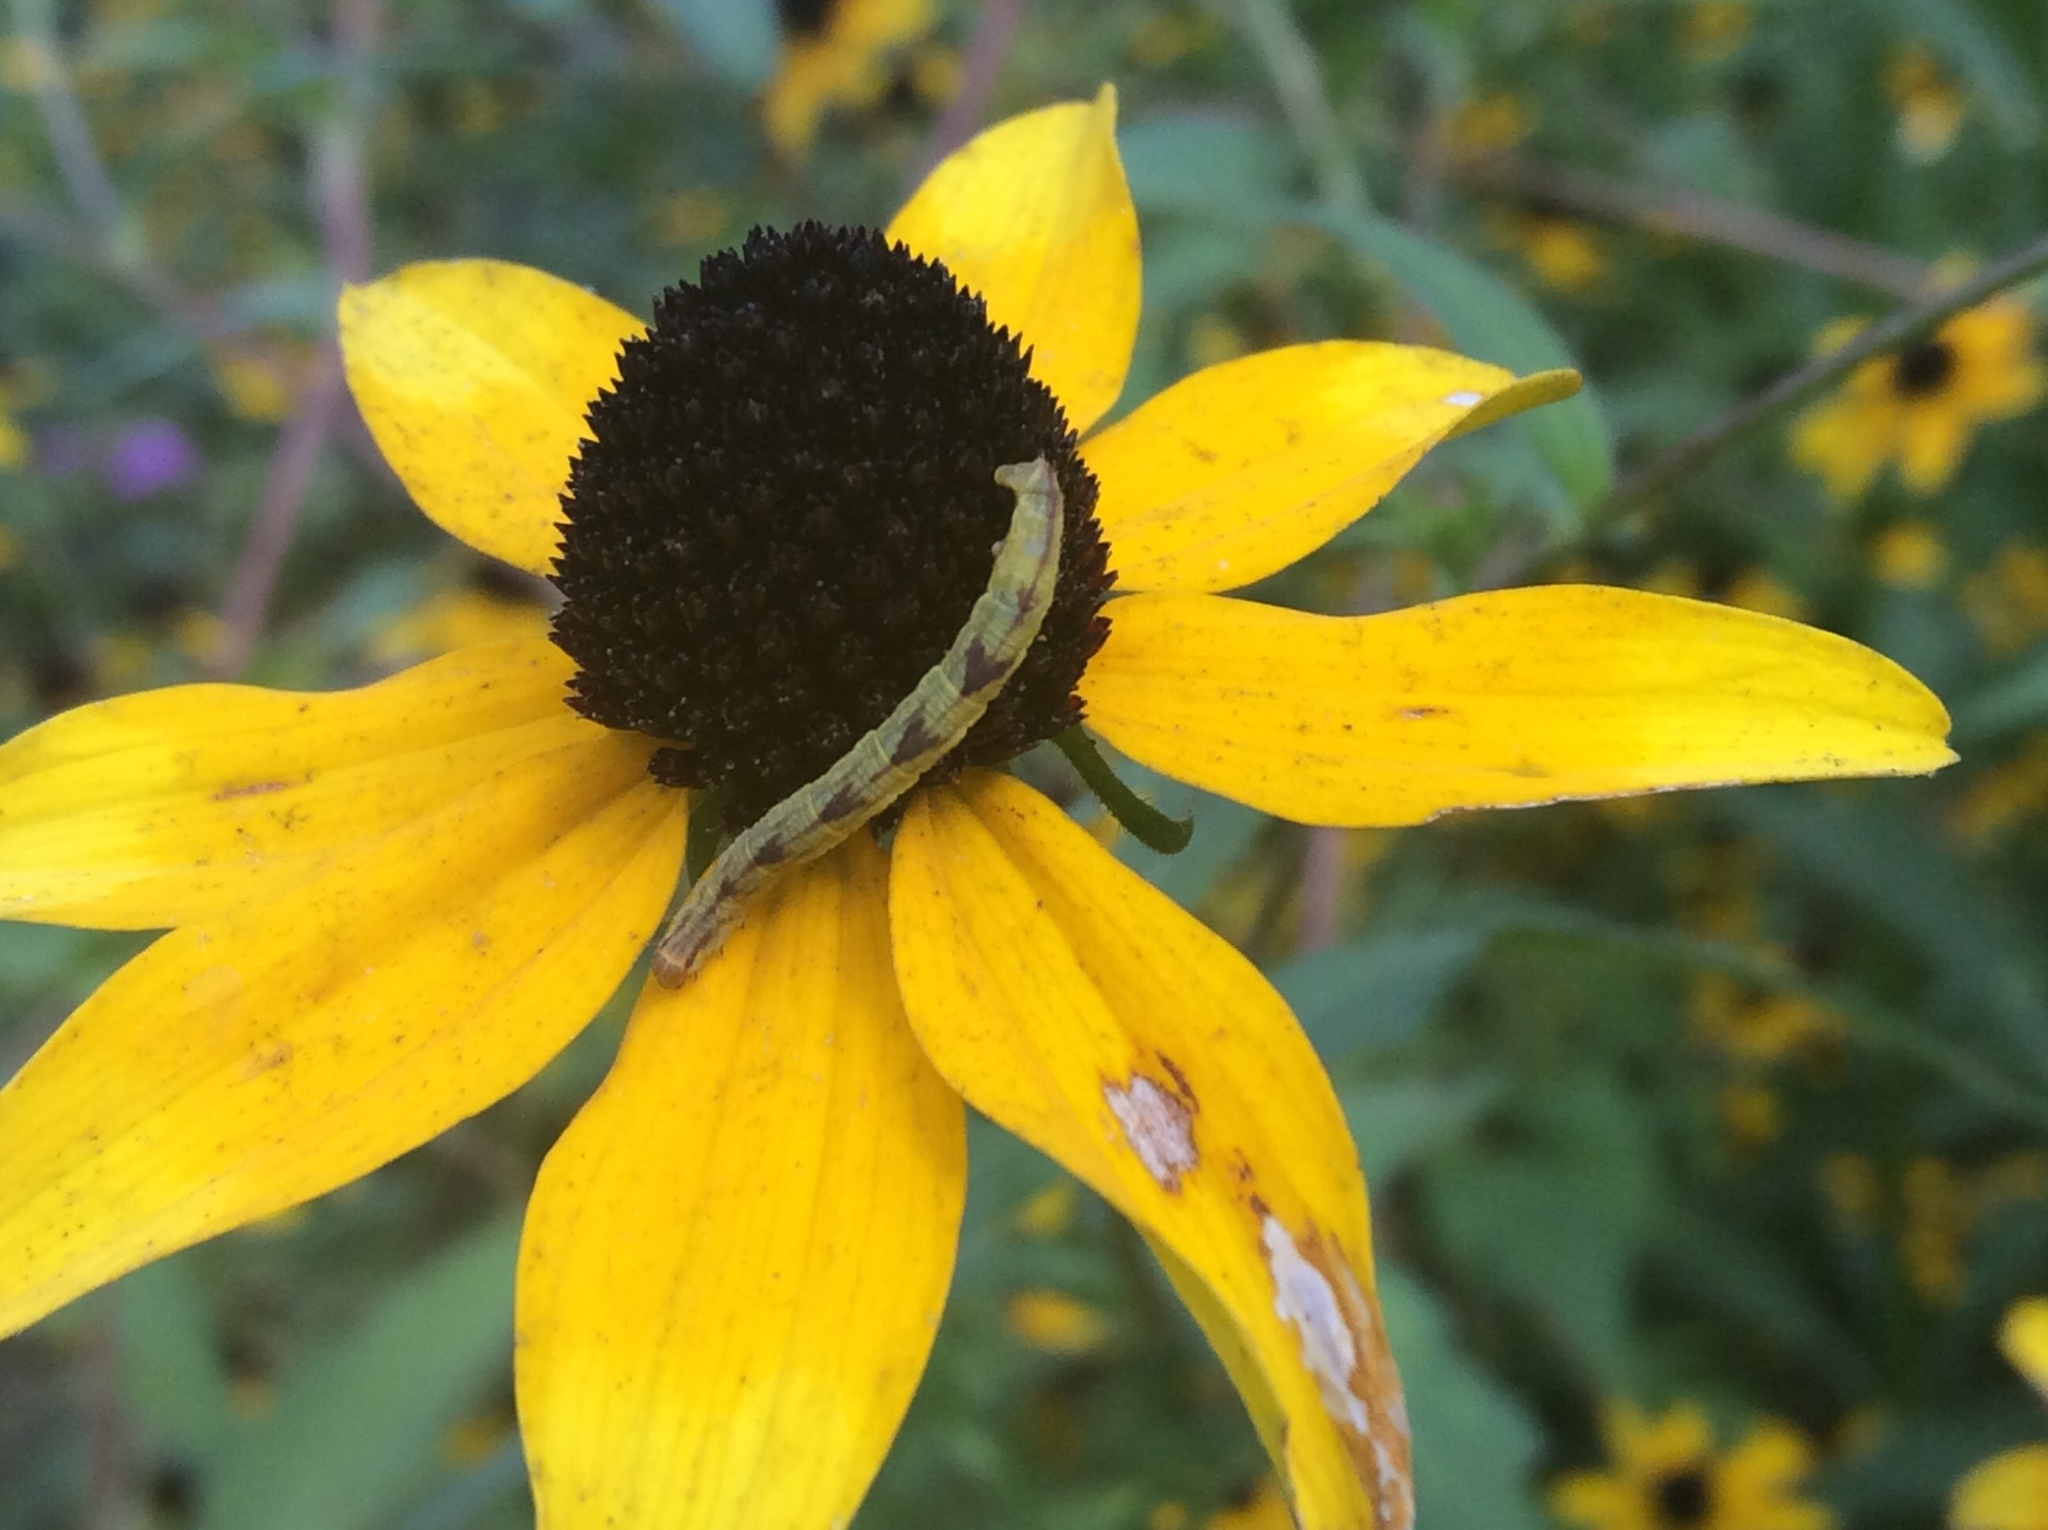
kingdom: Plantae
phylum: Tracheophyta
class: Magnoliopsida
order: Asterales
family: Asteraceae
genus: Rudbeckia
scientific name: Rudbeckia hirta
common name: Black-eyed-susan
